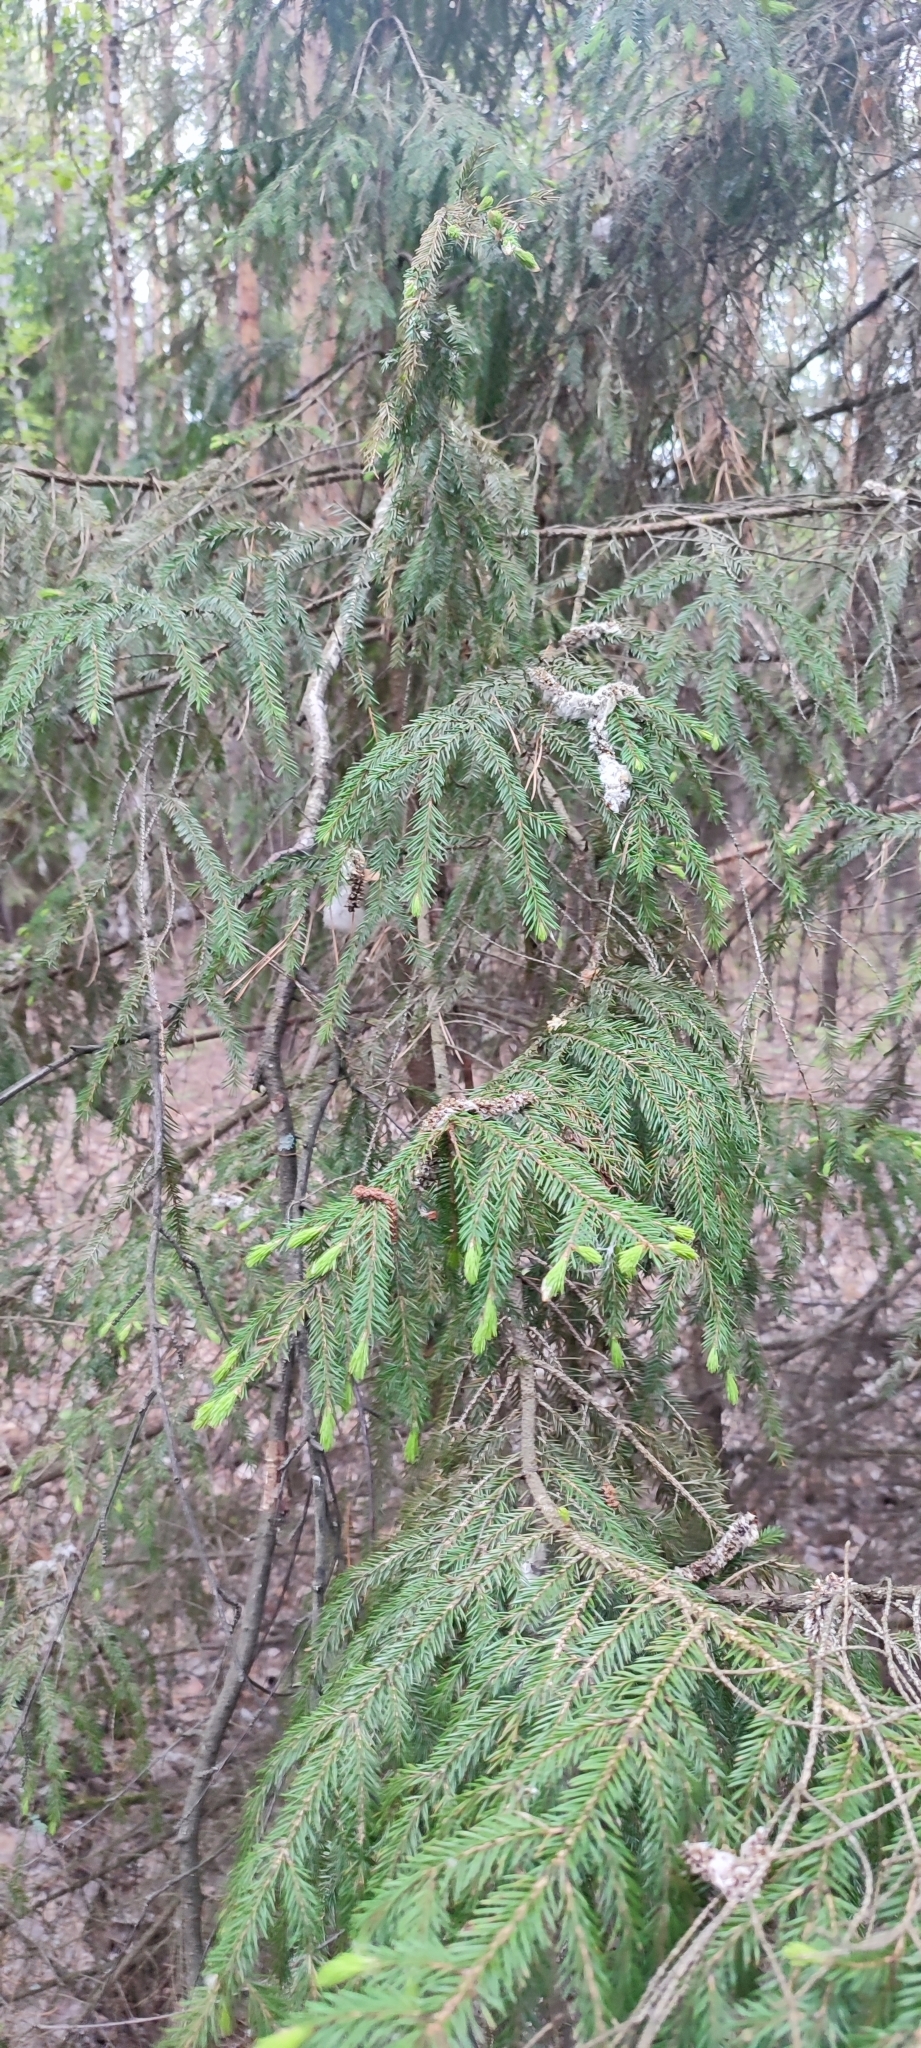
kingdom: Plantae
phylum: Tracheophyta
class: Pinopsida
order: Pinales
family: Pinaceae
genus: Picea
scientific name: Picea
